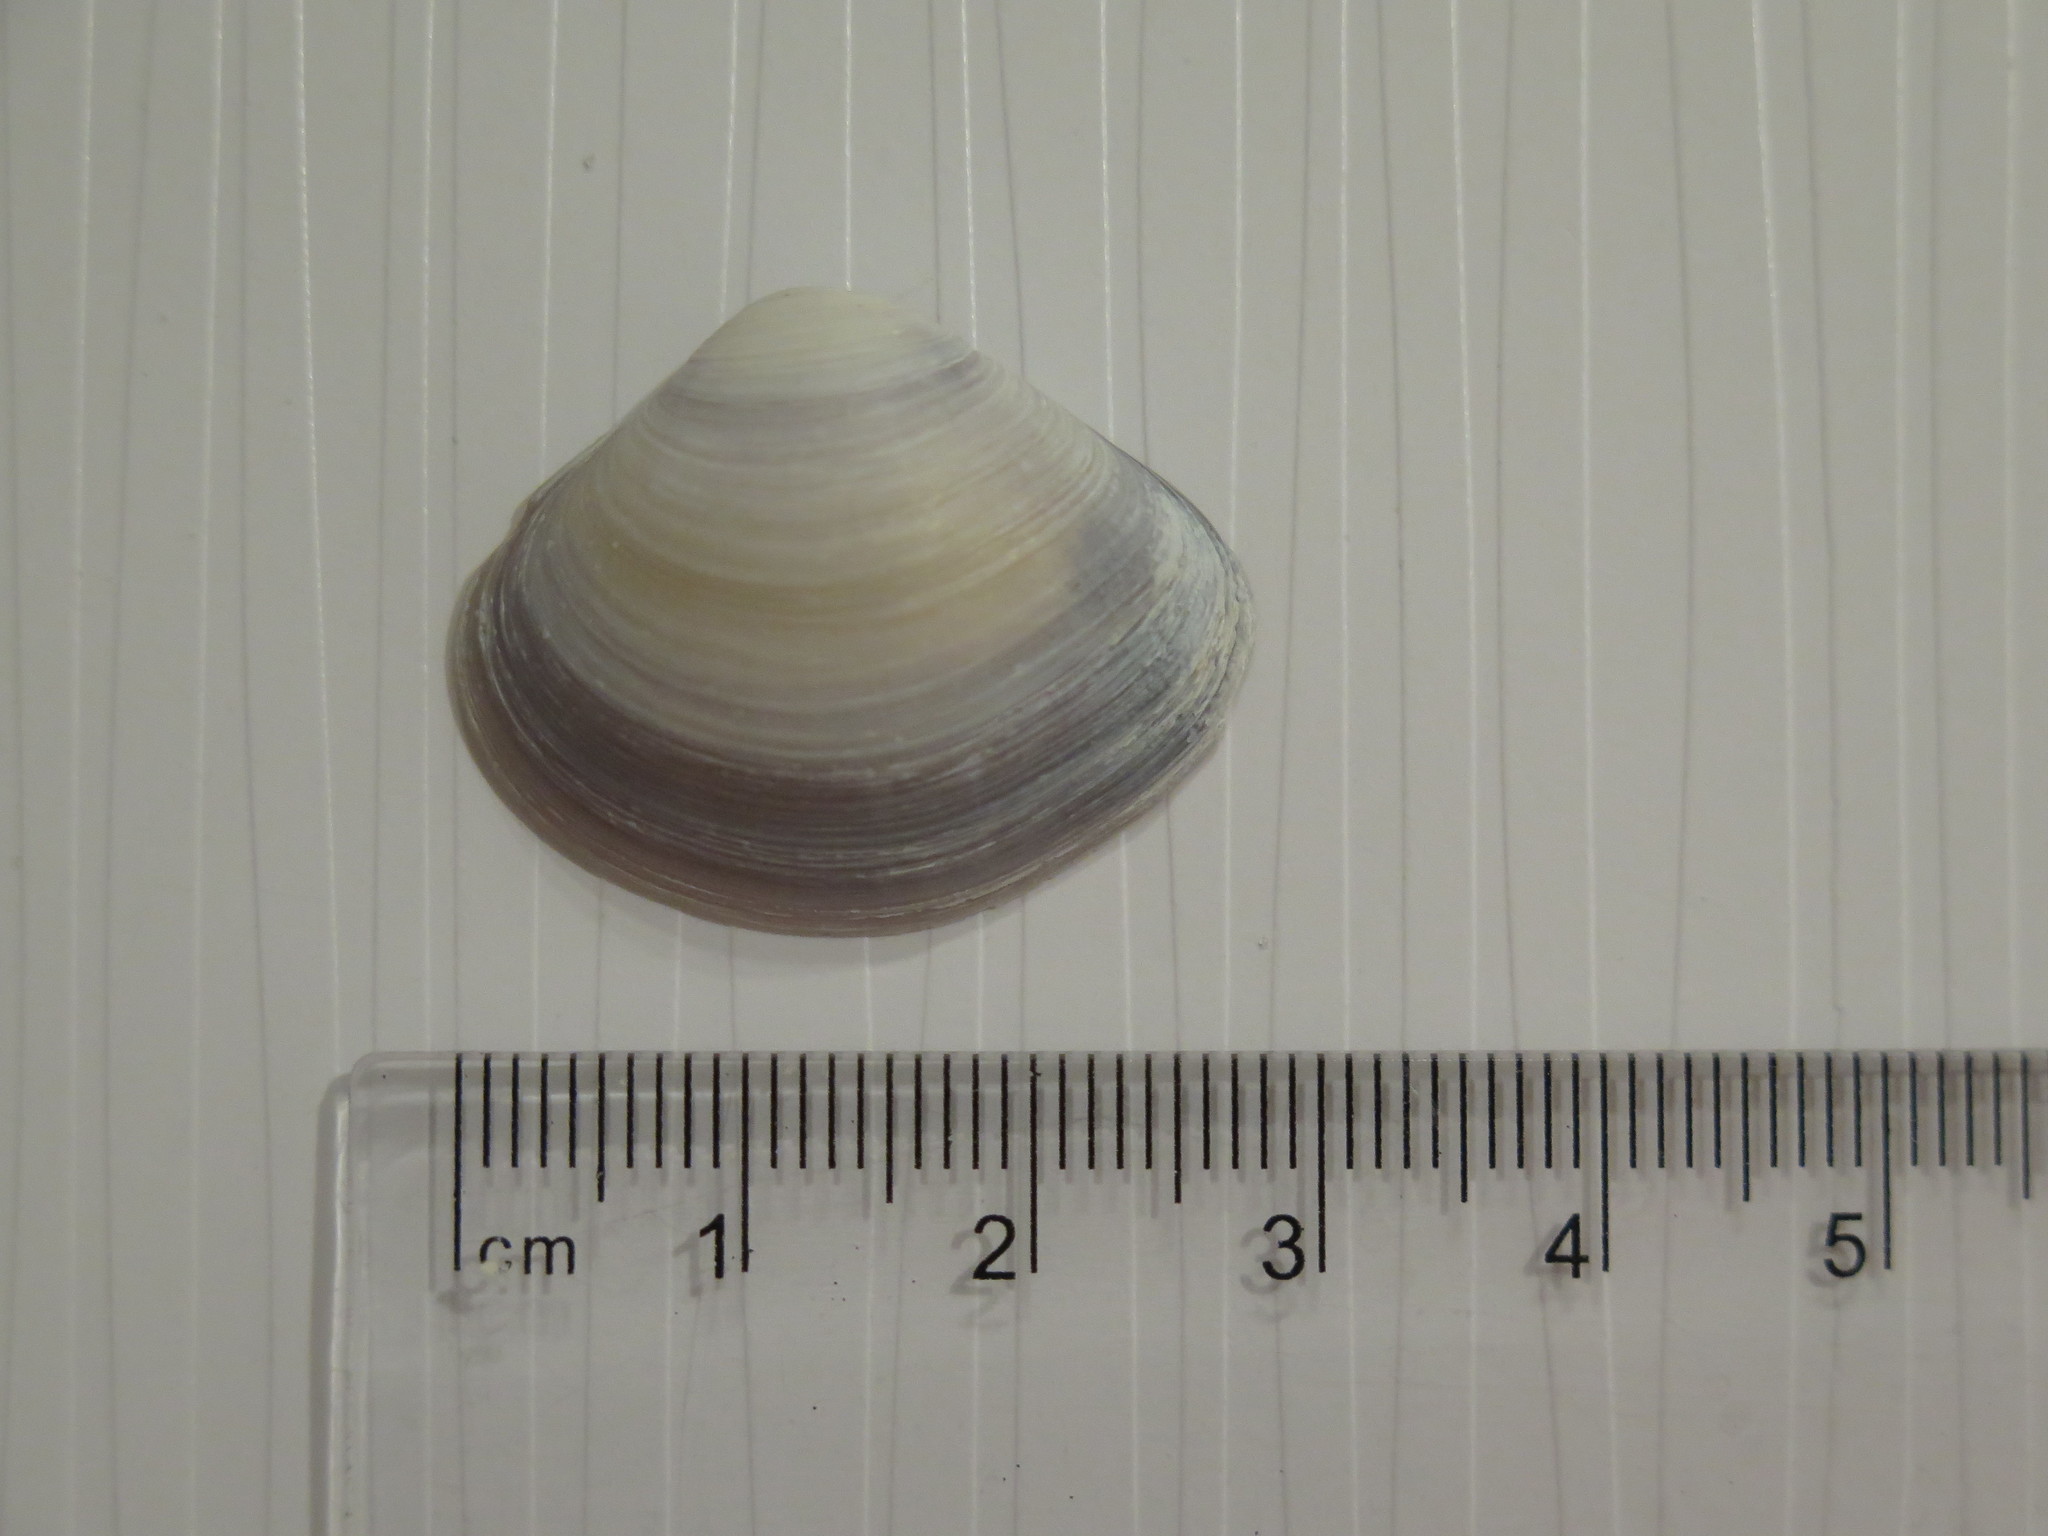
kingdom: Animalia
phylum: Mollusca
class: Bivalvia
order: Venerida
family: Cyrenidae
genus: Polymesoda
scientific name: Polymesoda floridana
